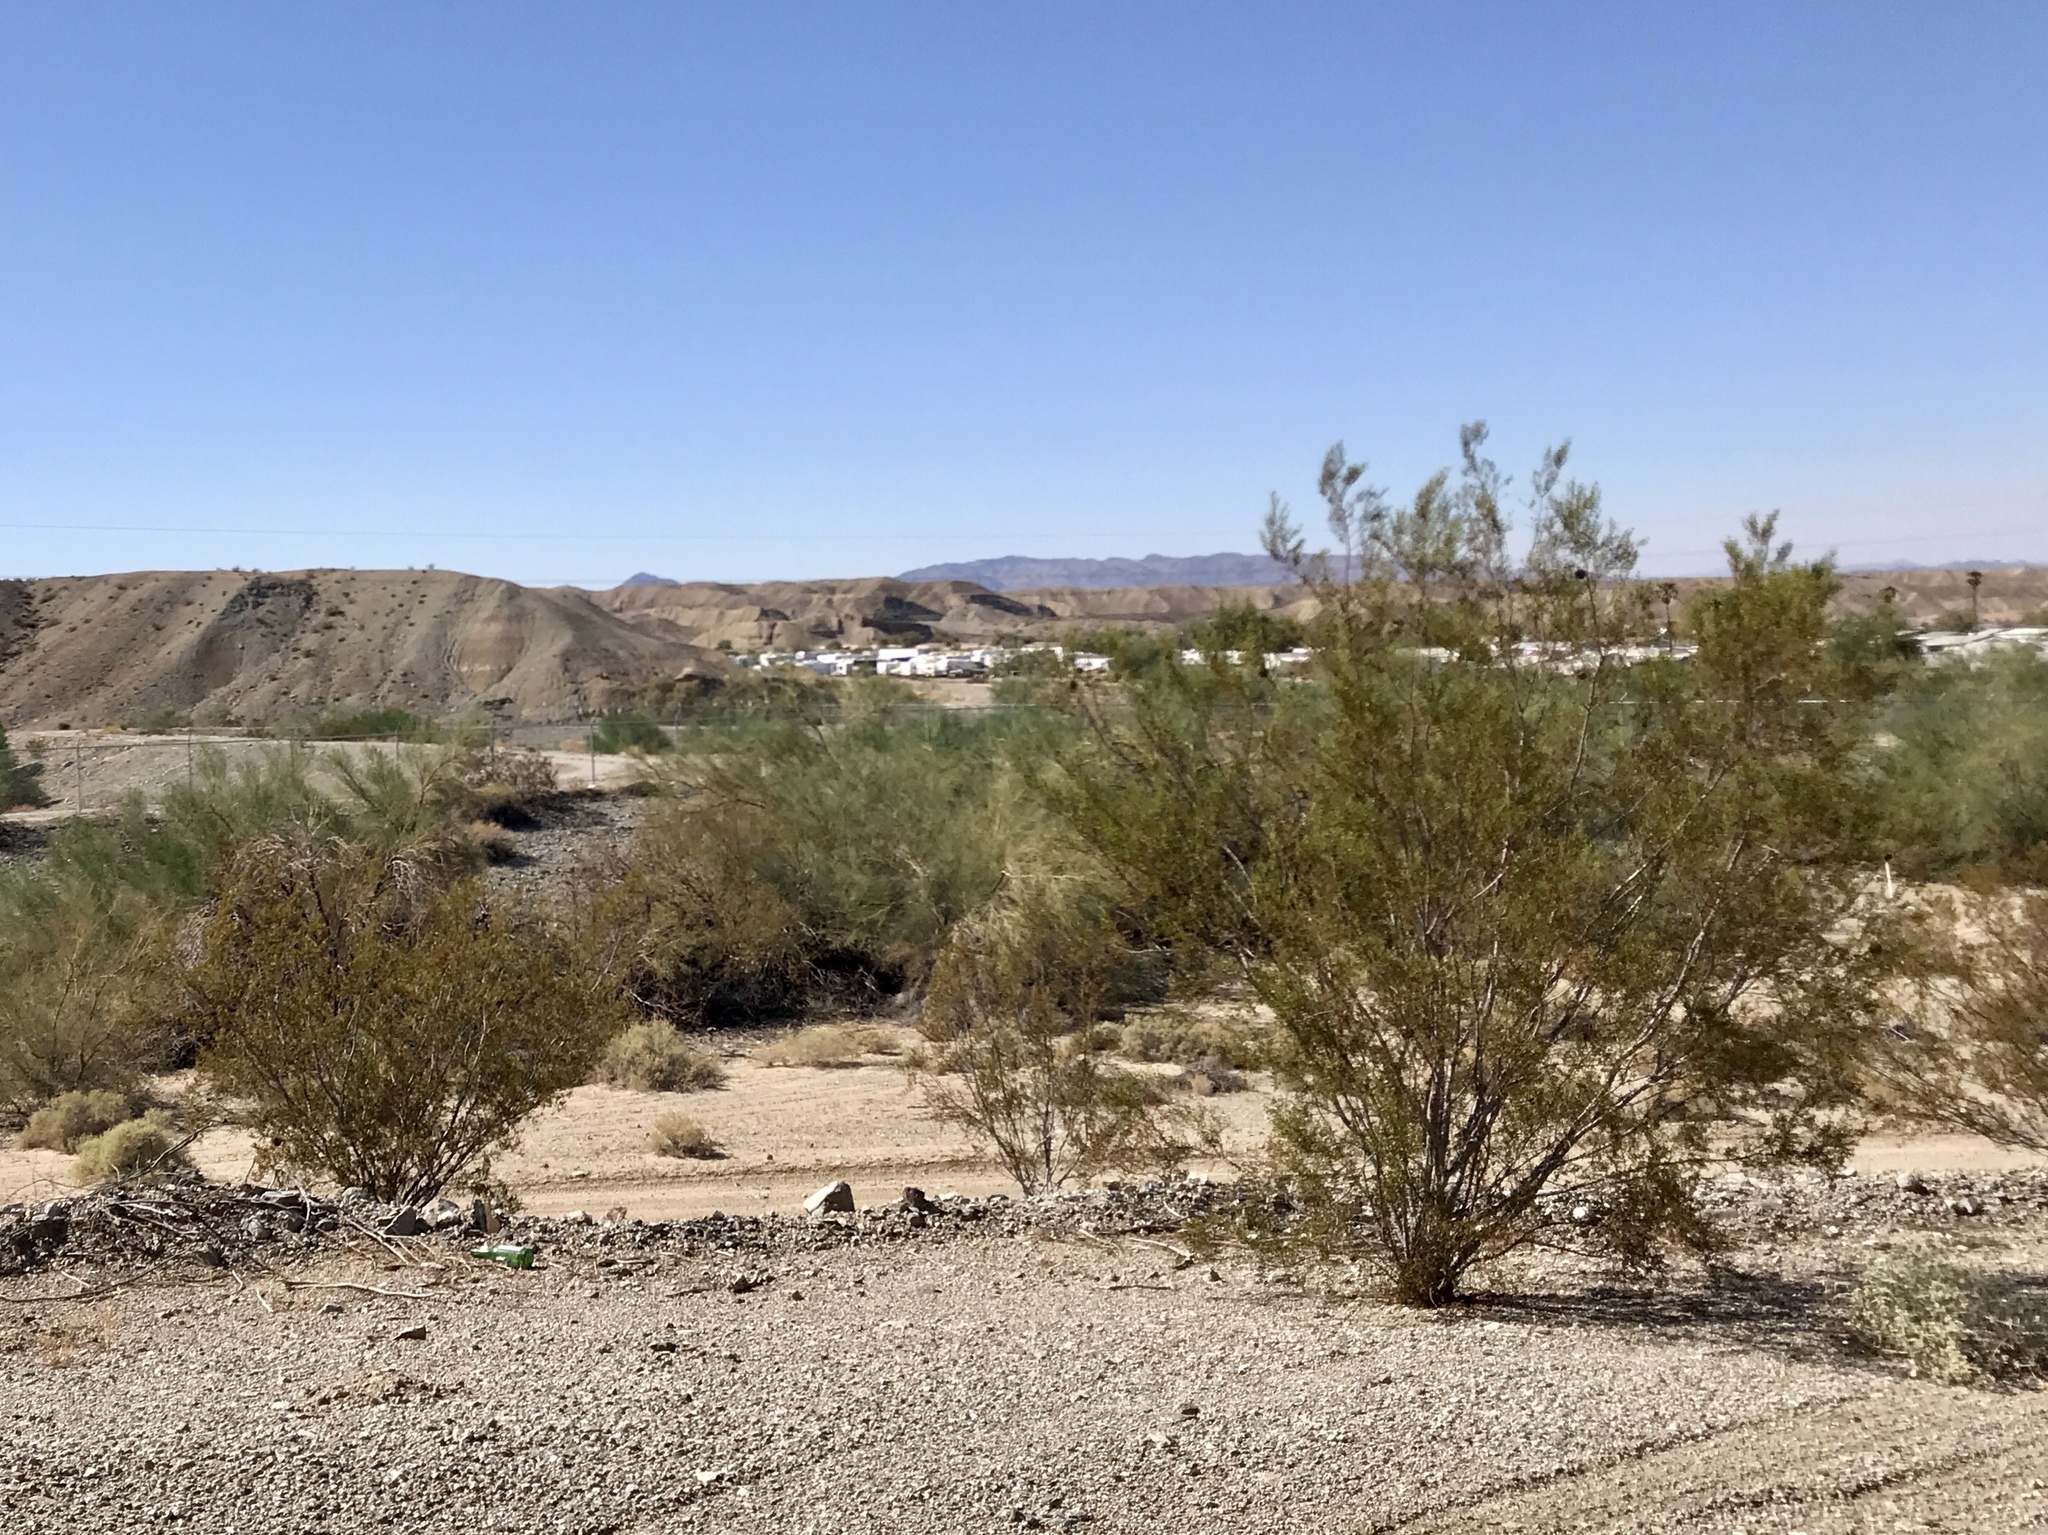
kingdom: Plantae
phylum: Tracheophyta
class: Magnoliopsida
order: Zygophyllales
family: Zygophyllaceae
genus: Larrea
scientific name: Larrea tridentata
